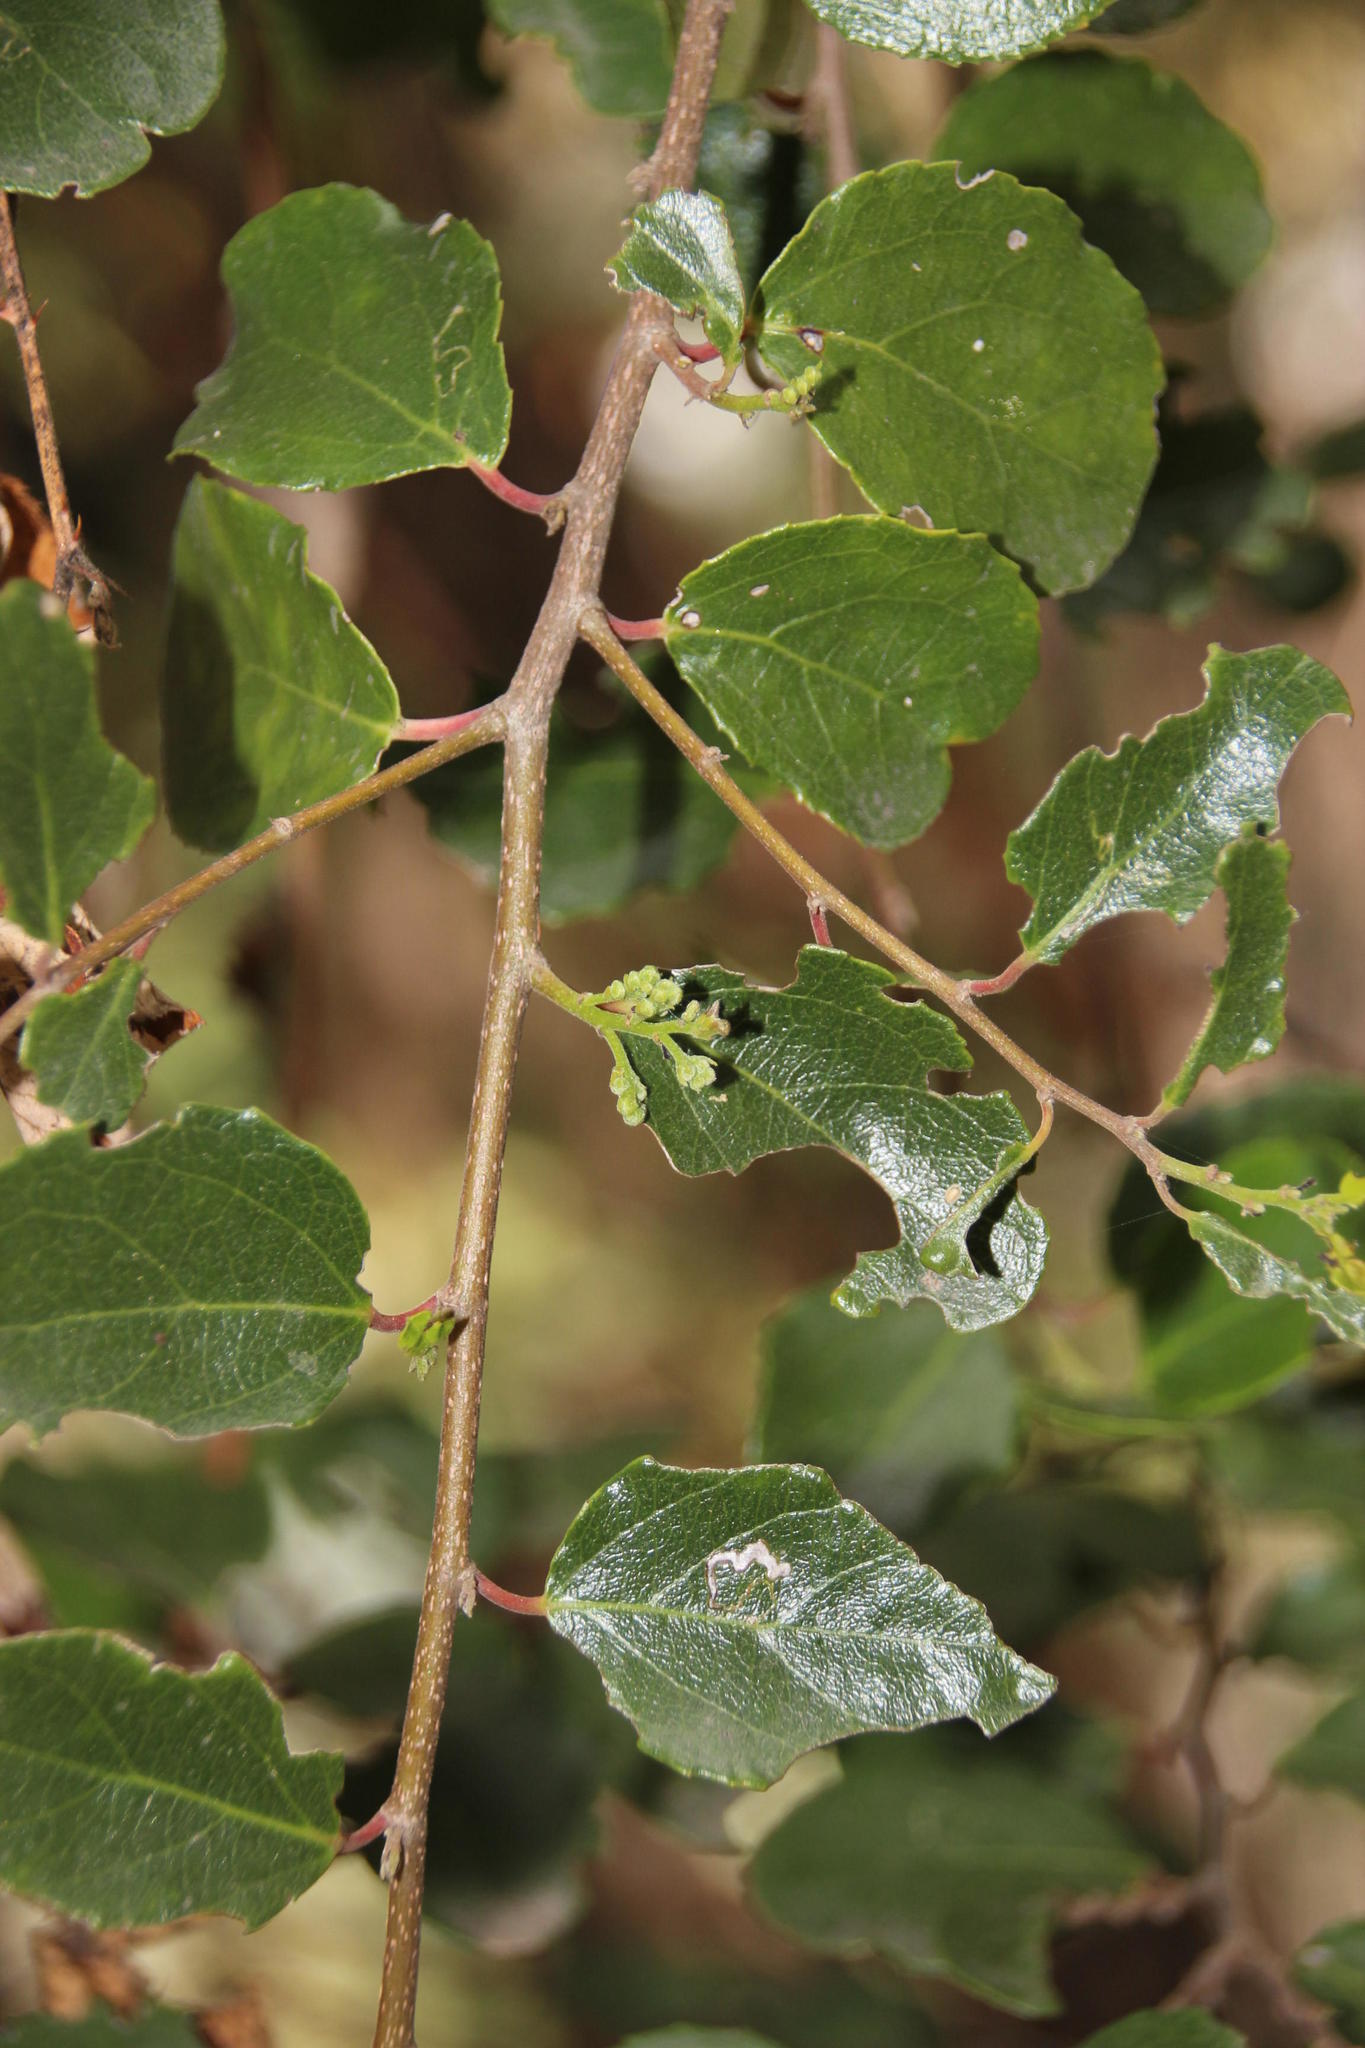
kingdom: Plantae
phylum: Tracheophyta
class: Magnoliopsida
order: Malpighiales
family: Salicaceae
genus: Azara
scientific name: Azara celastrina
